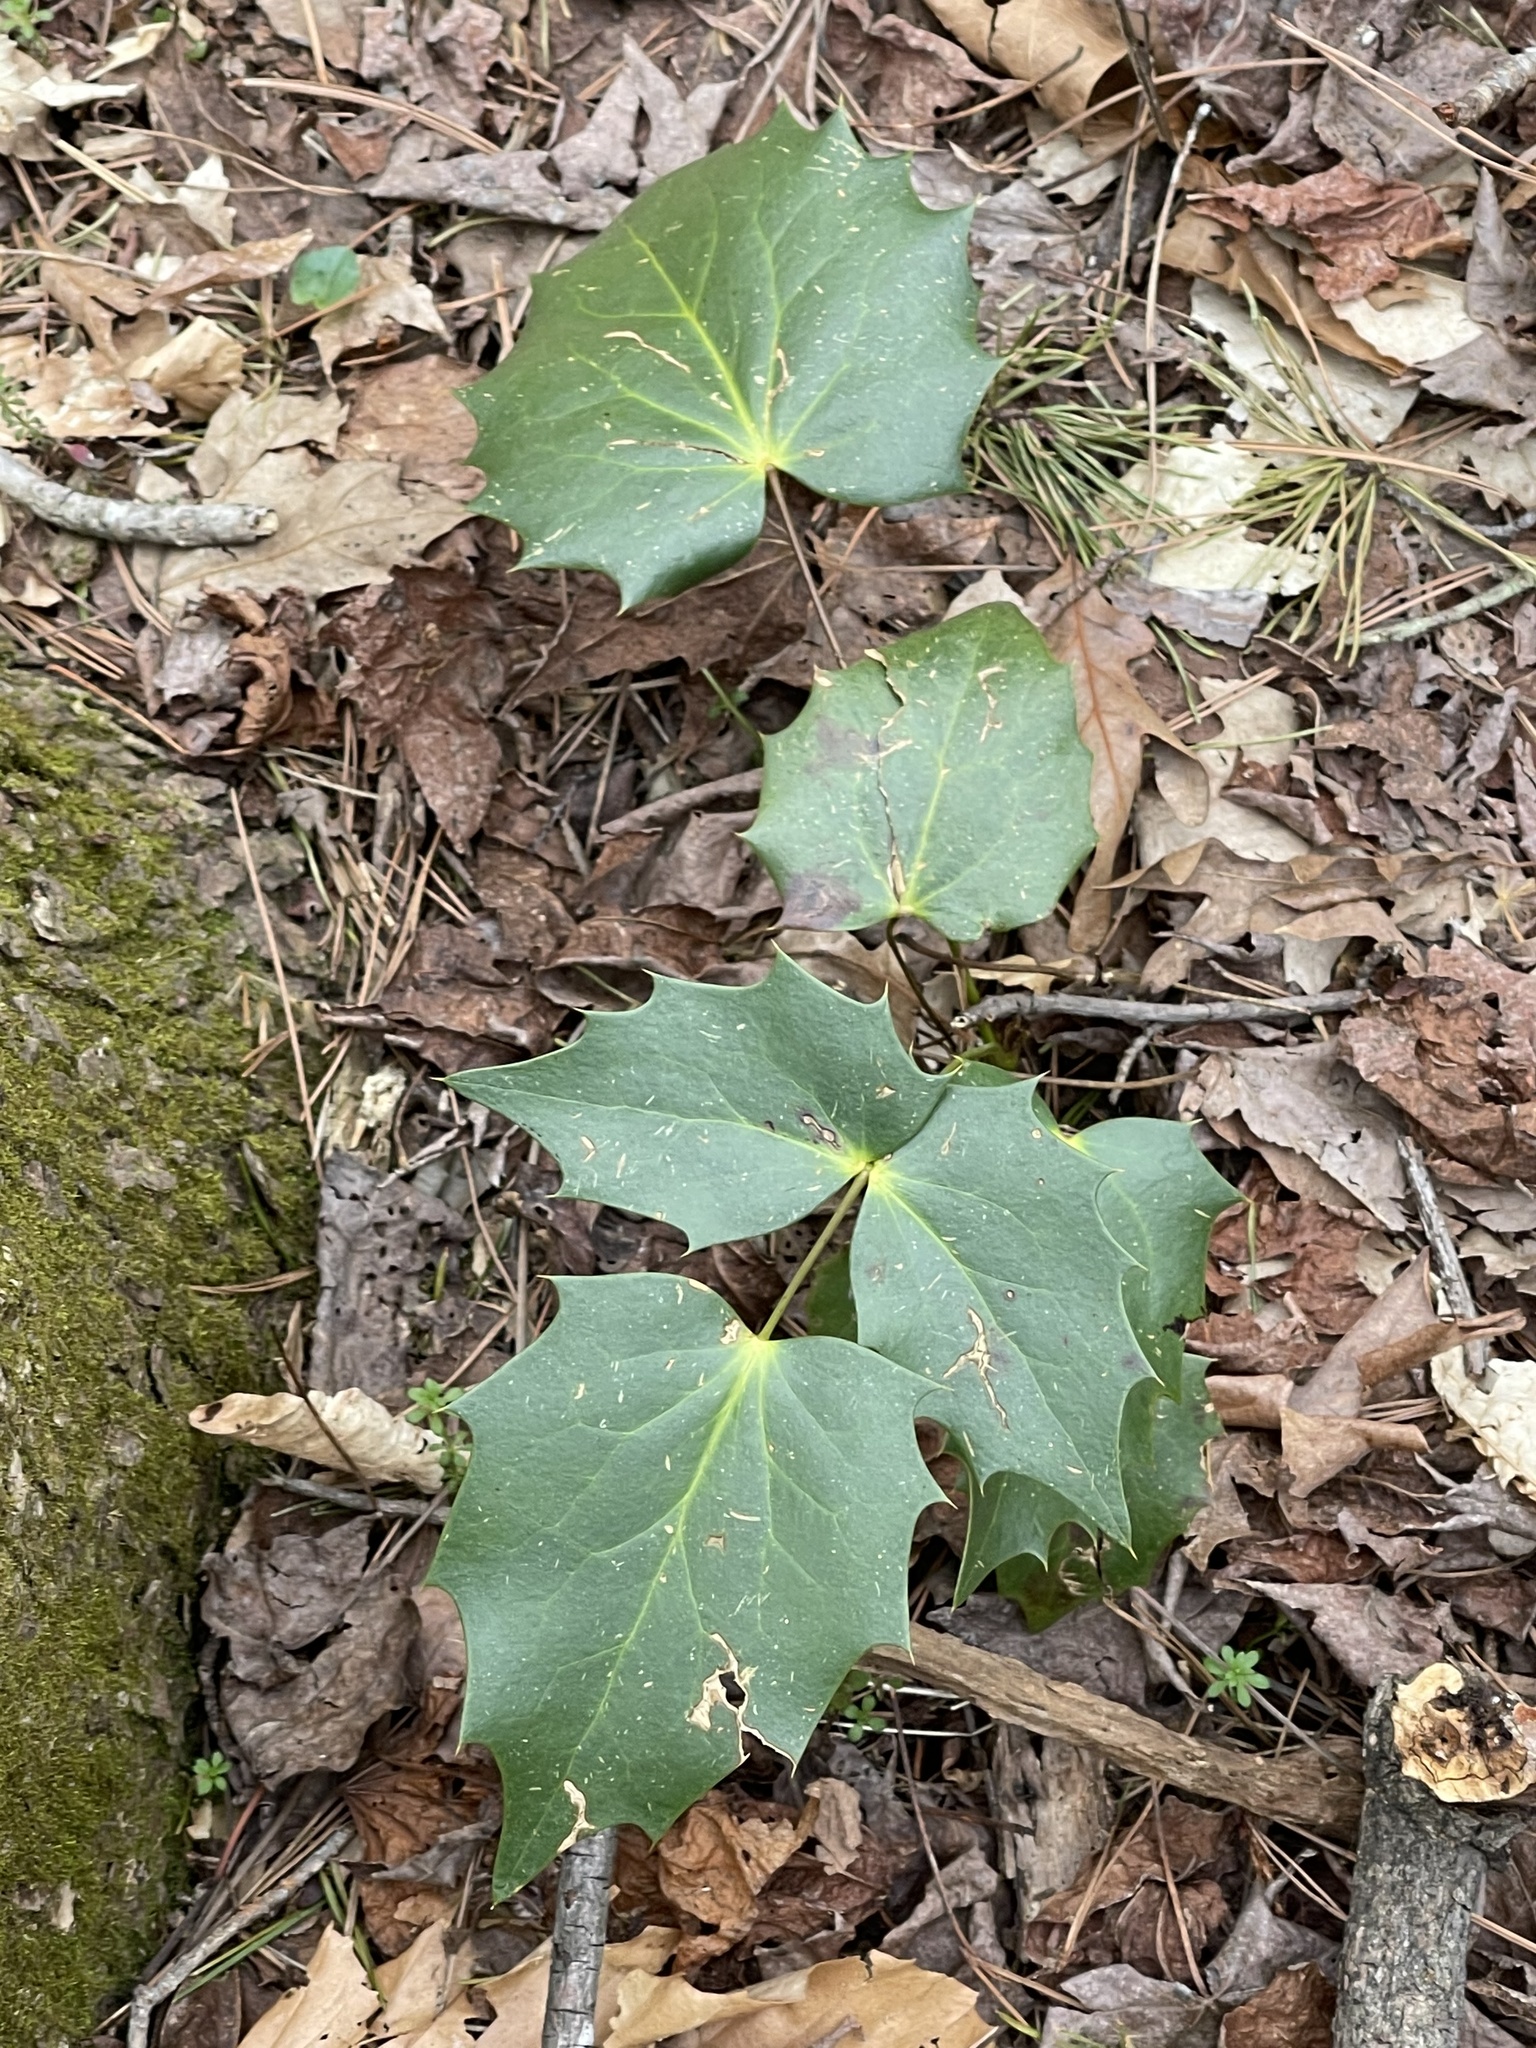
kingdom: Plantae
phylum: Tracheophyta
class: Magnoliopsida
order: Ranunculales
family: Berberidaceae
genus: Mahonia
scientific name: Mahonia bealei
